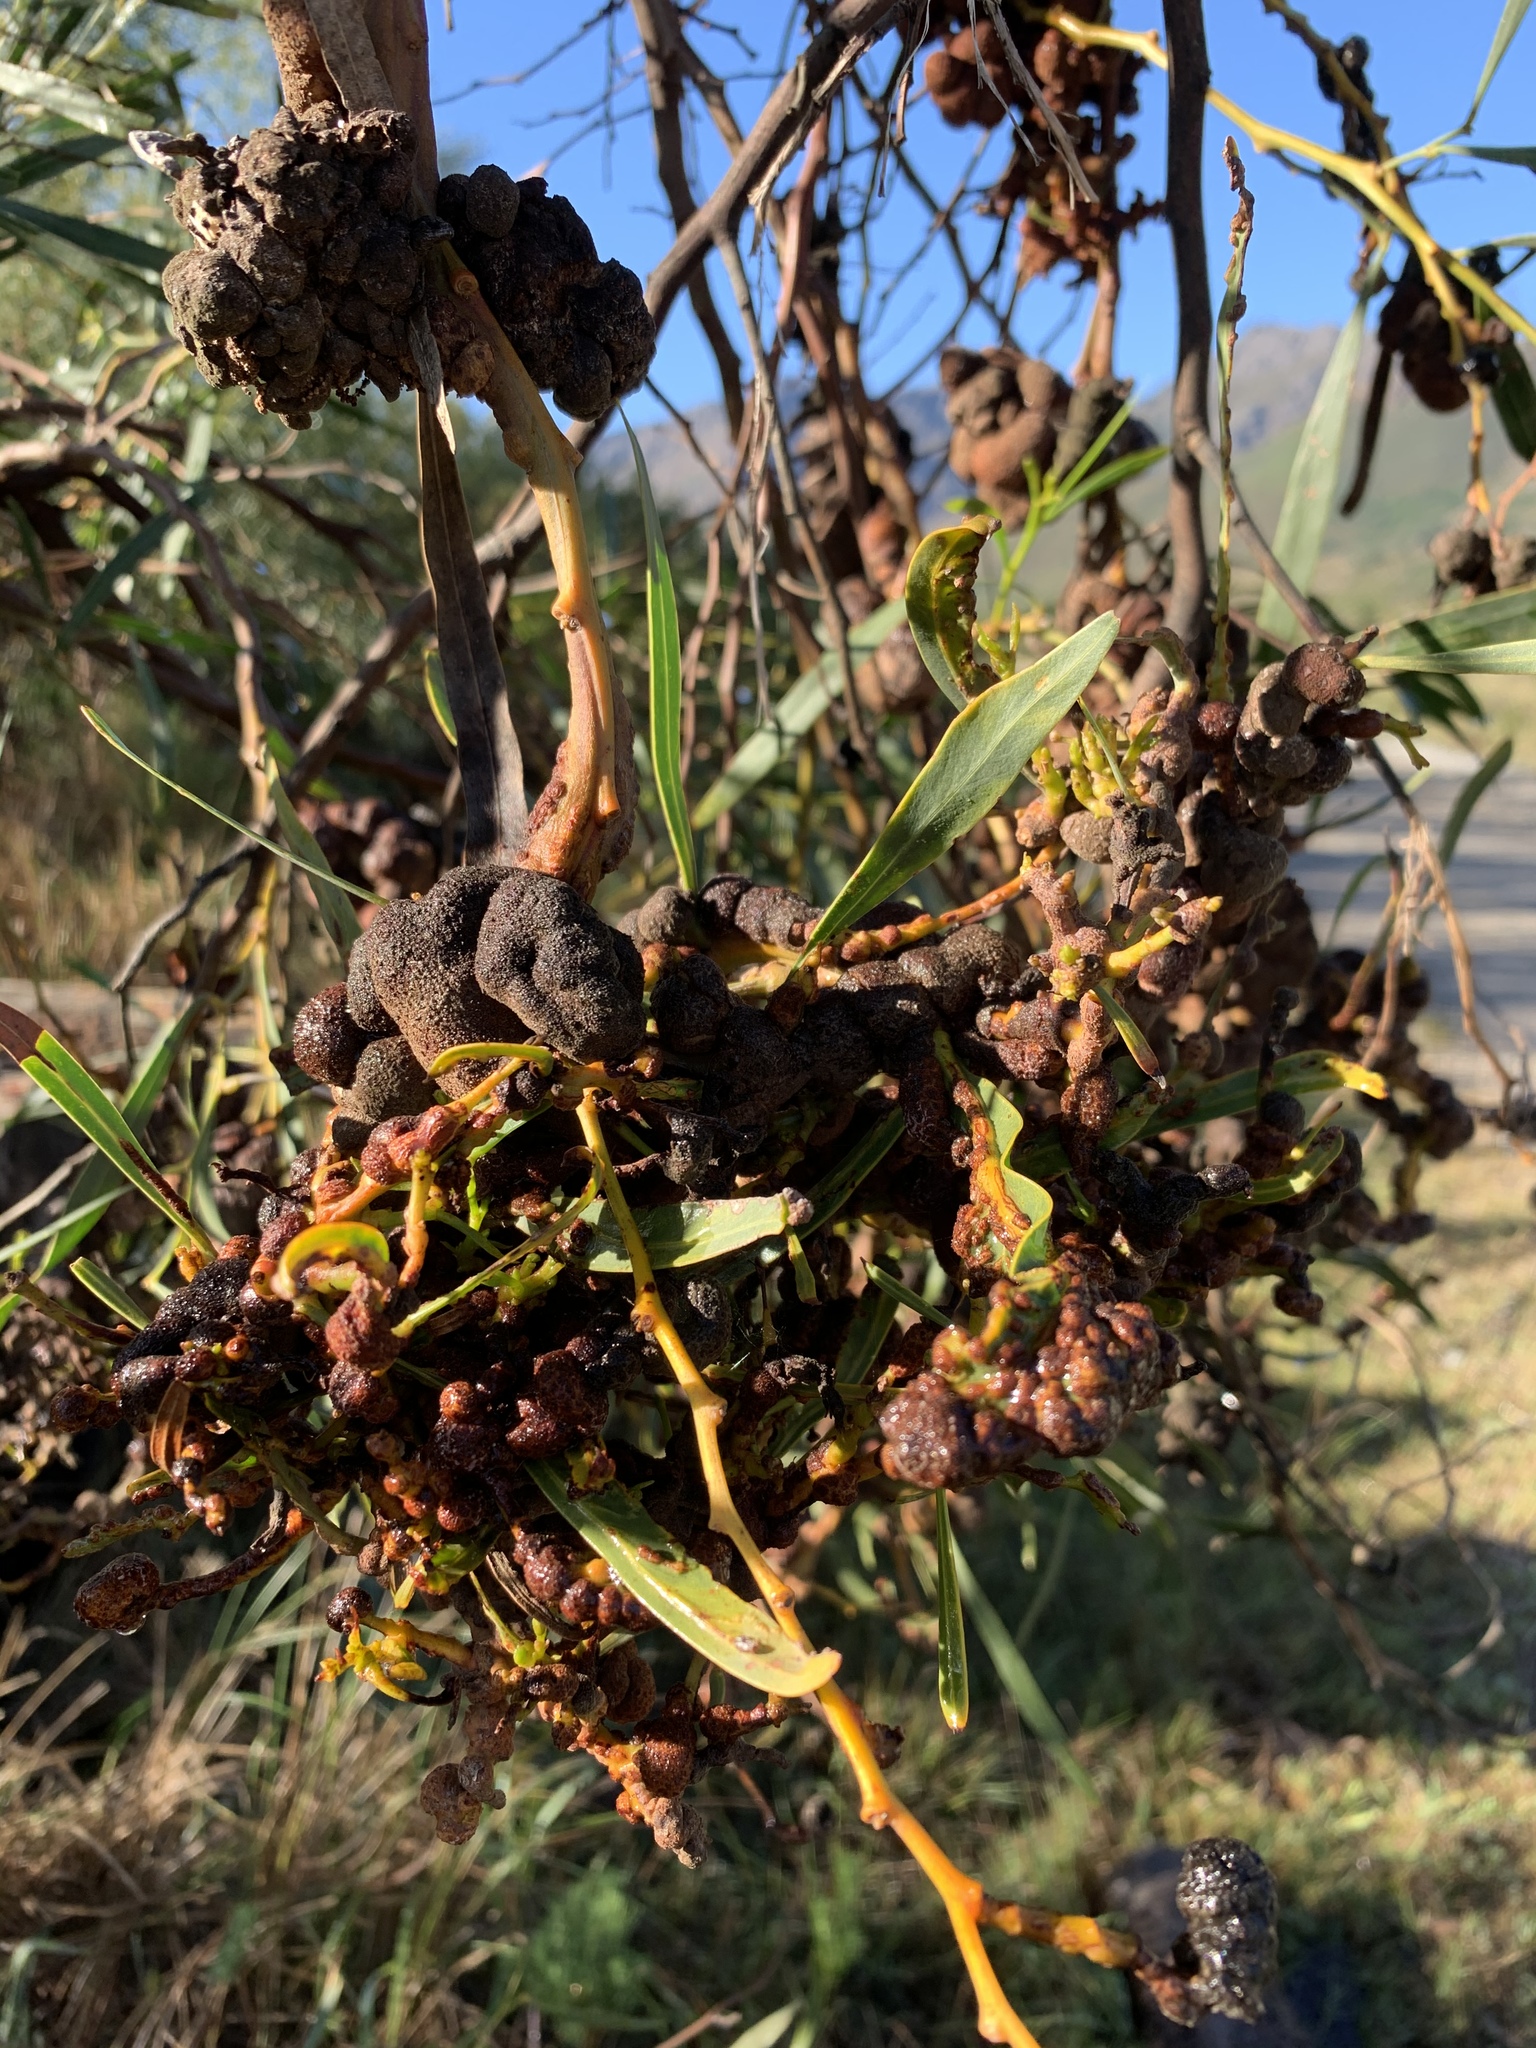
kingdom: Fungi
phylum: Basidiomycota
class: Pucciniomycetes
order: Pucciniales
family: Uromycladiaceae
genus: Uromycladium
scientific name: Uromycladium morrisii
